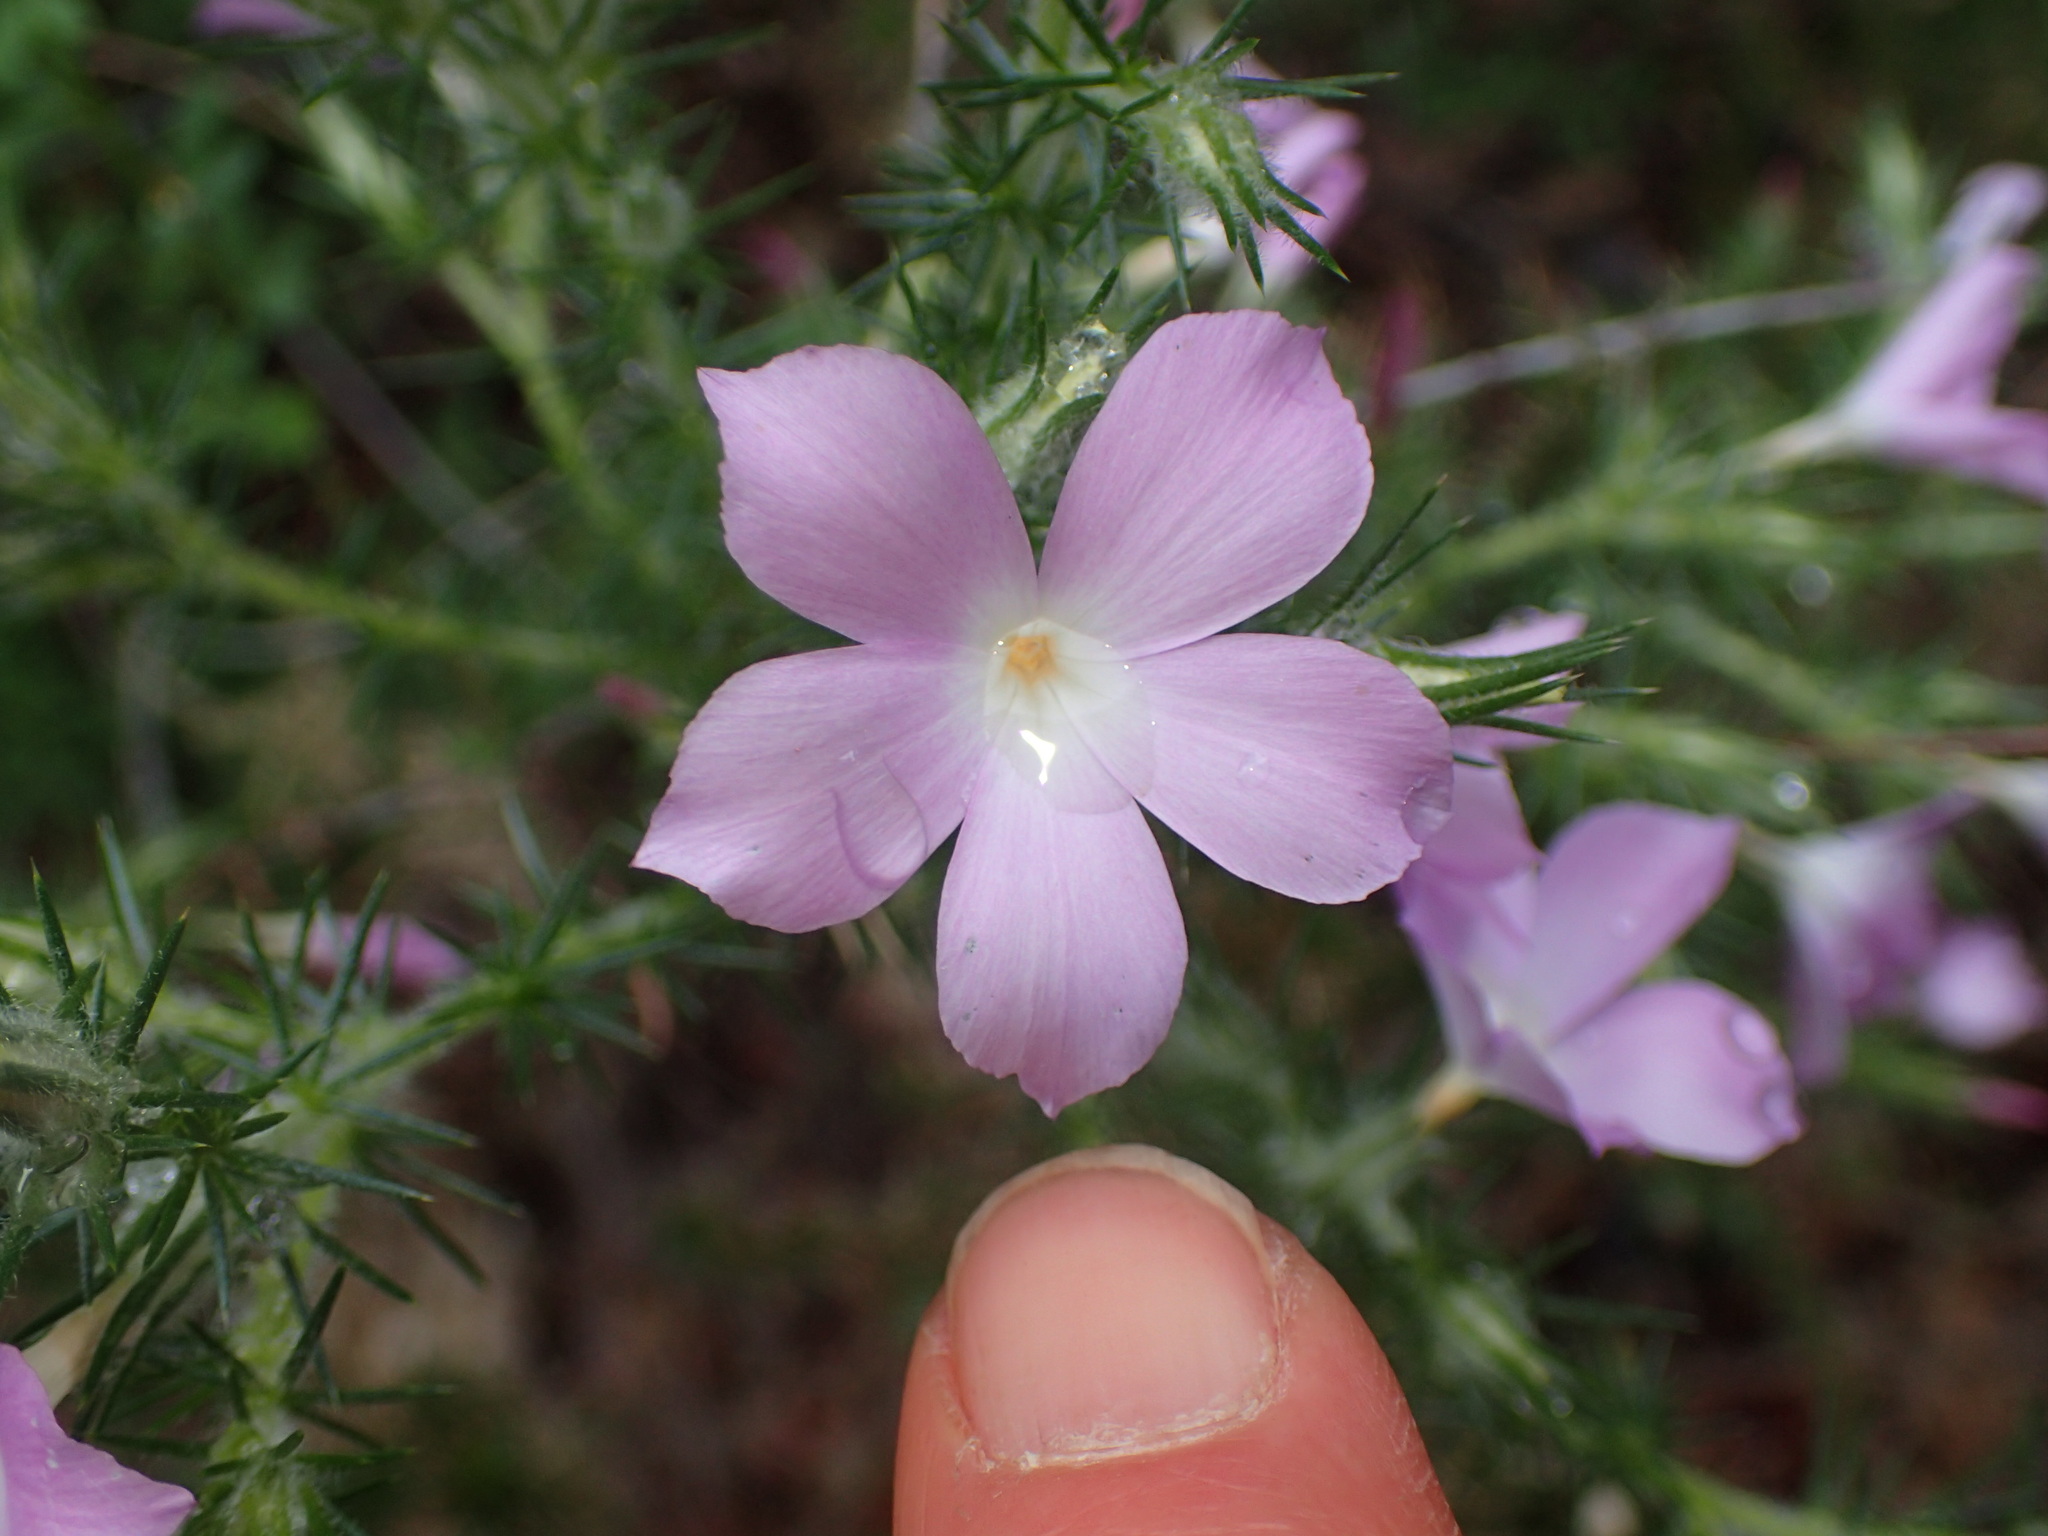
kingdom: Plantae
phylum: Tracheophyta
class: Magnoliopsida
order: Ericales
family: Polemoniaceae
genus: Linanthus
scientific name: Linanthus californicus
